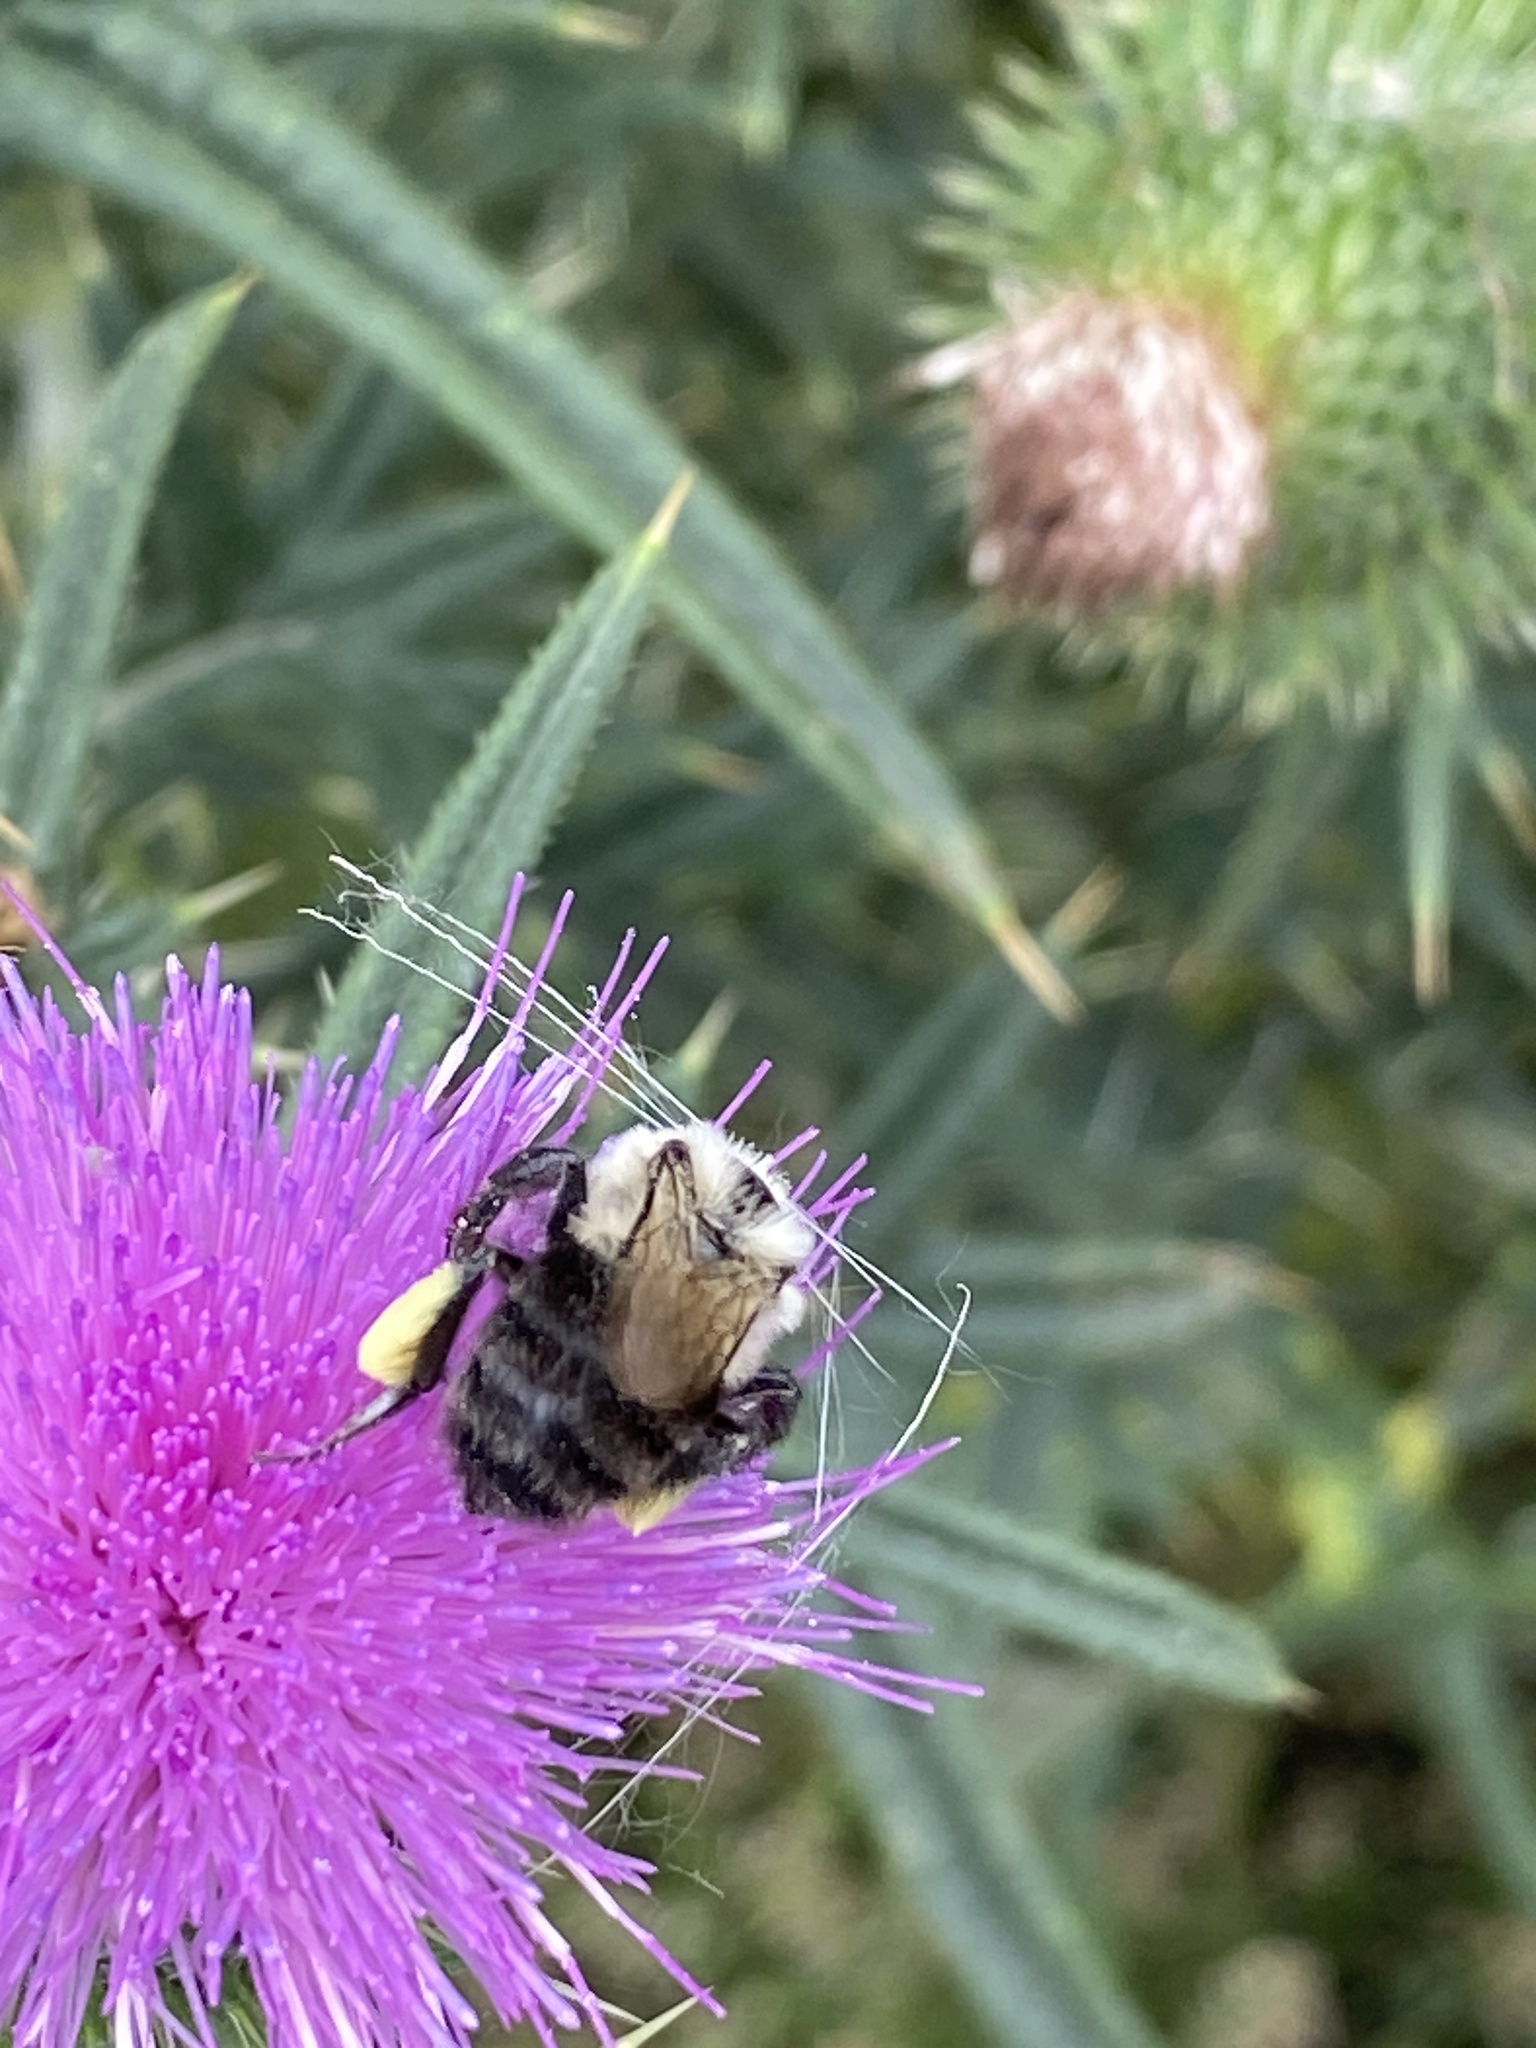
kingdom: Animalia
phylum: Arthropoda
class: Insecta
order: Hymenoptera
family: Apidae
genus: Bombus
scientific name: Bombus impatiens
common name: Common eastern bumble bee
